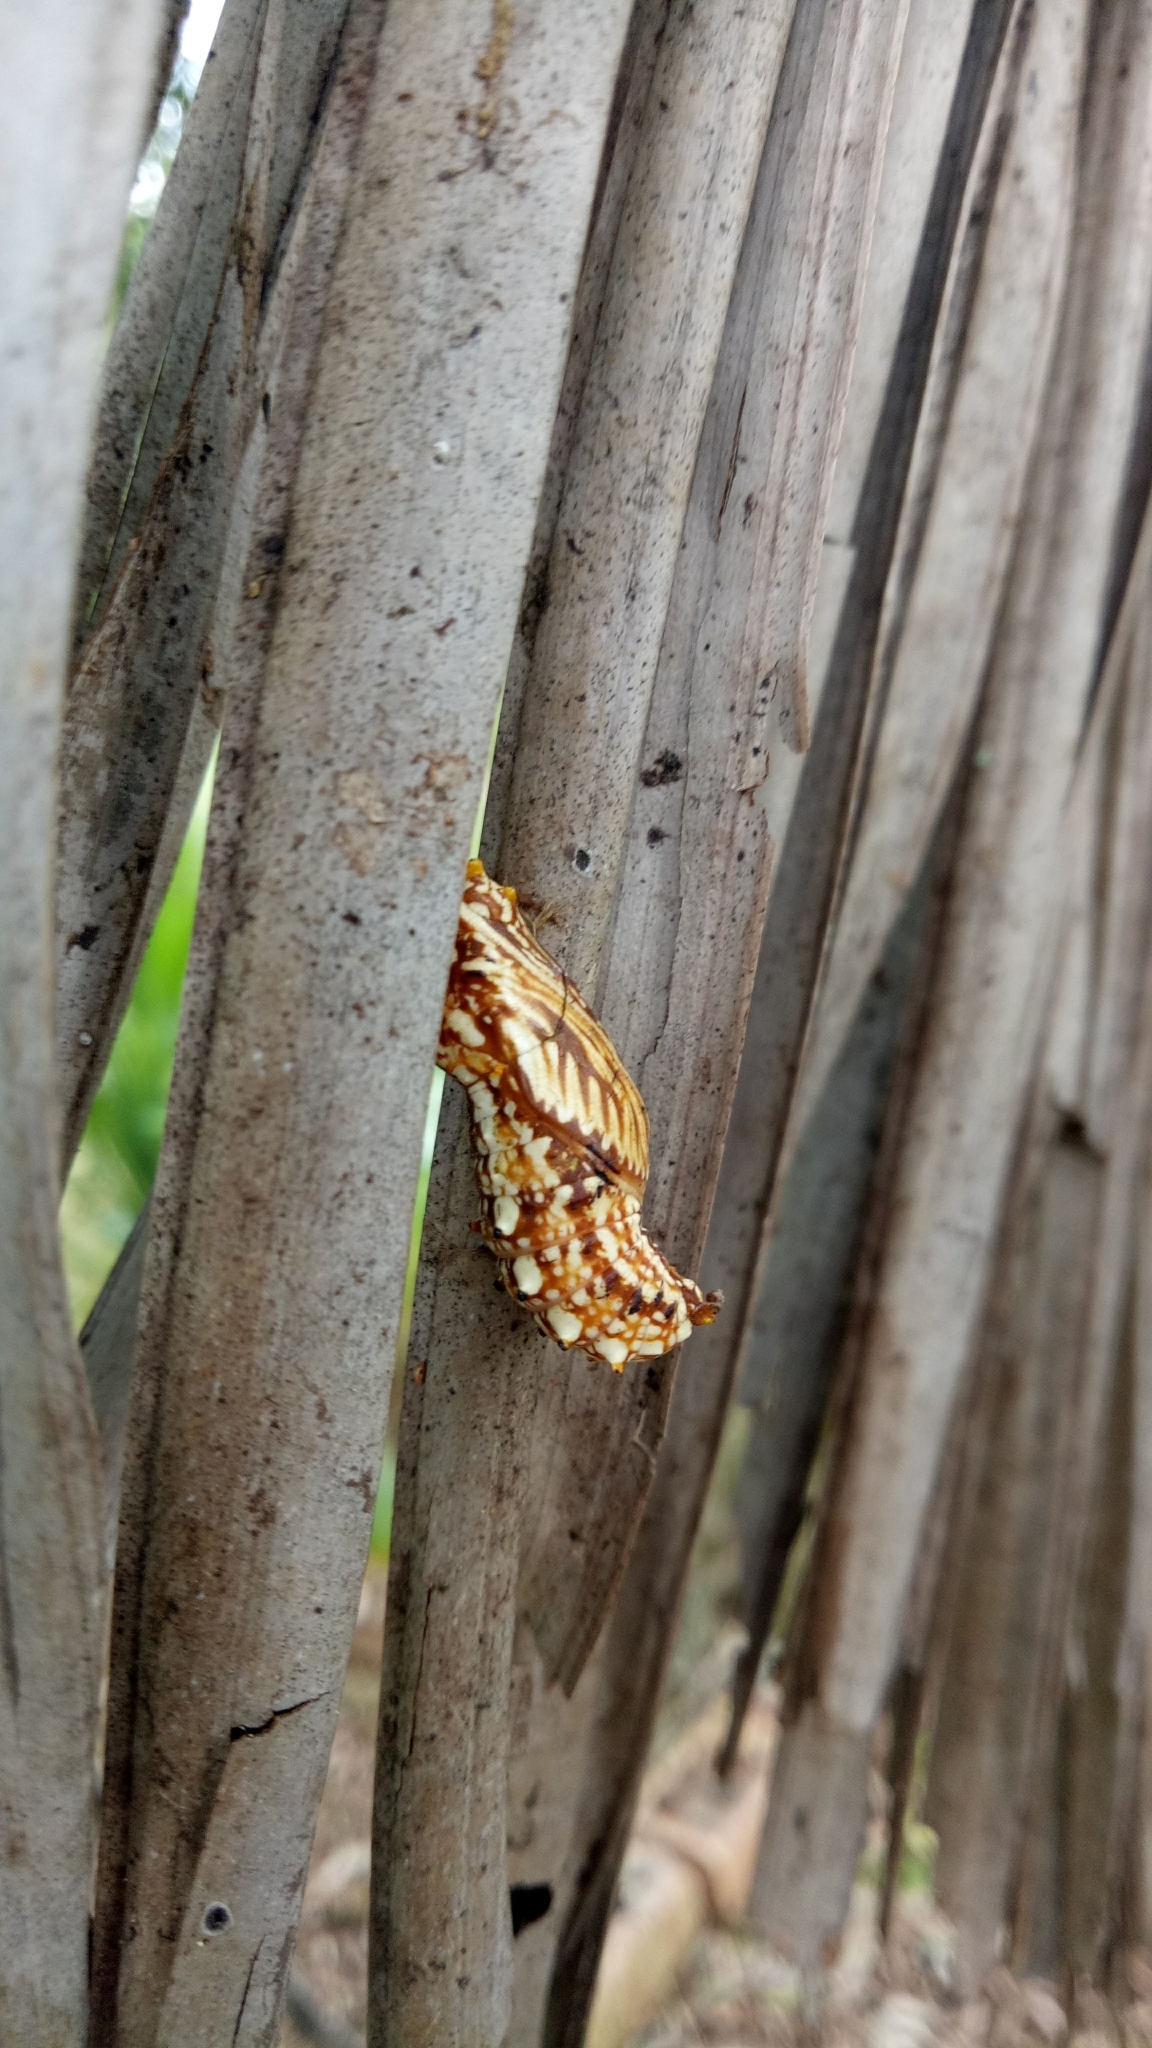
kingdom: Animalia
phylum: Arthropoda
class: Insecta
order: Lepidoptera
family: Papilionidae
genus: Cressida
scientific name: Cressida cressida
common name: Big greasy
